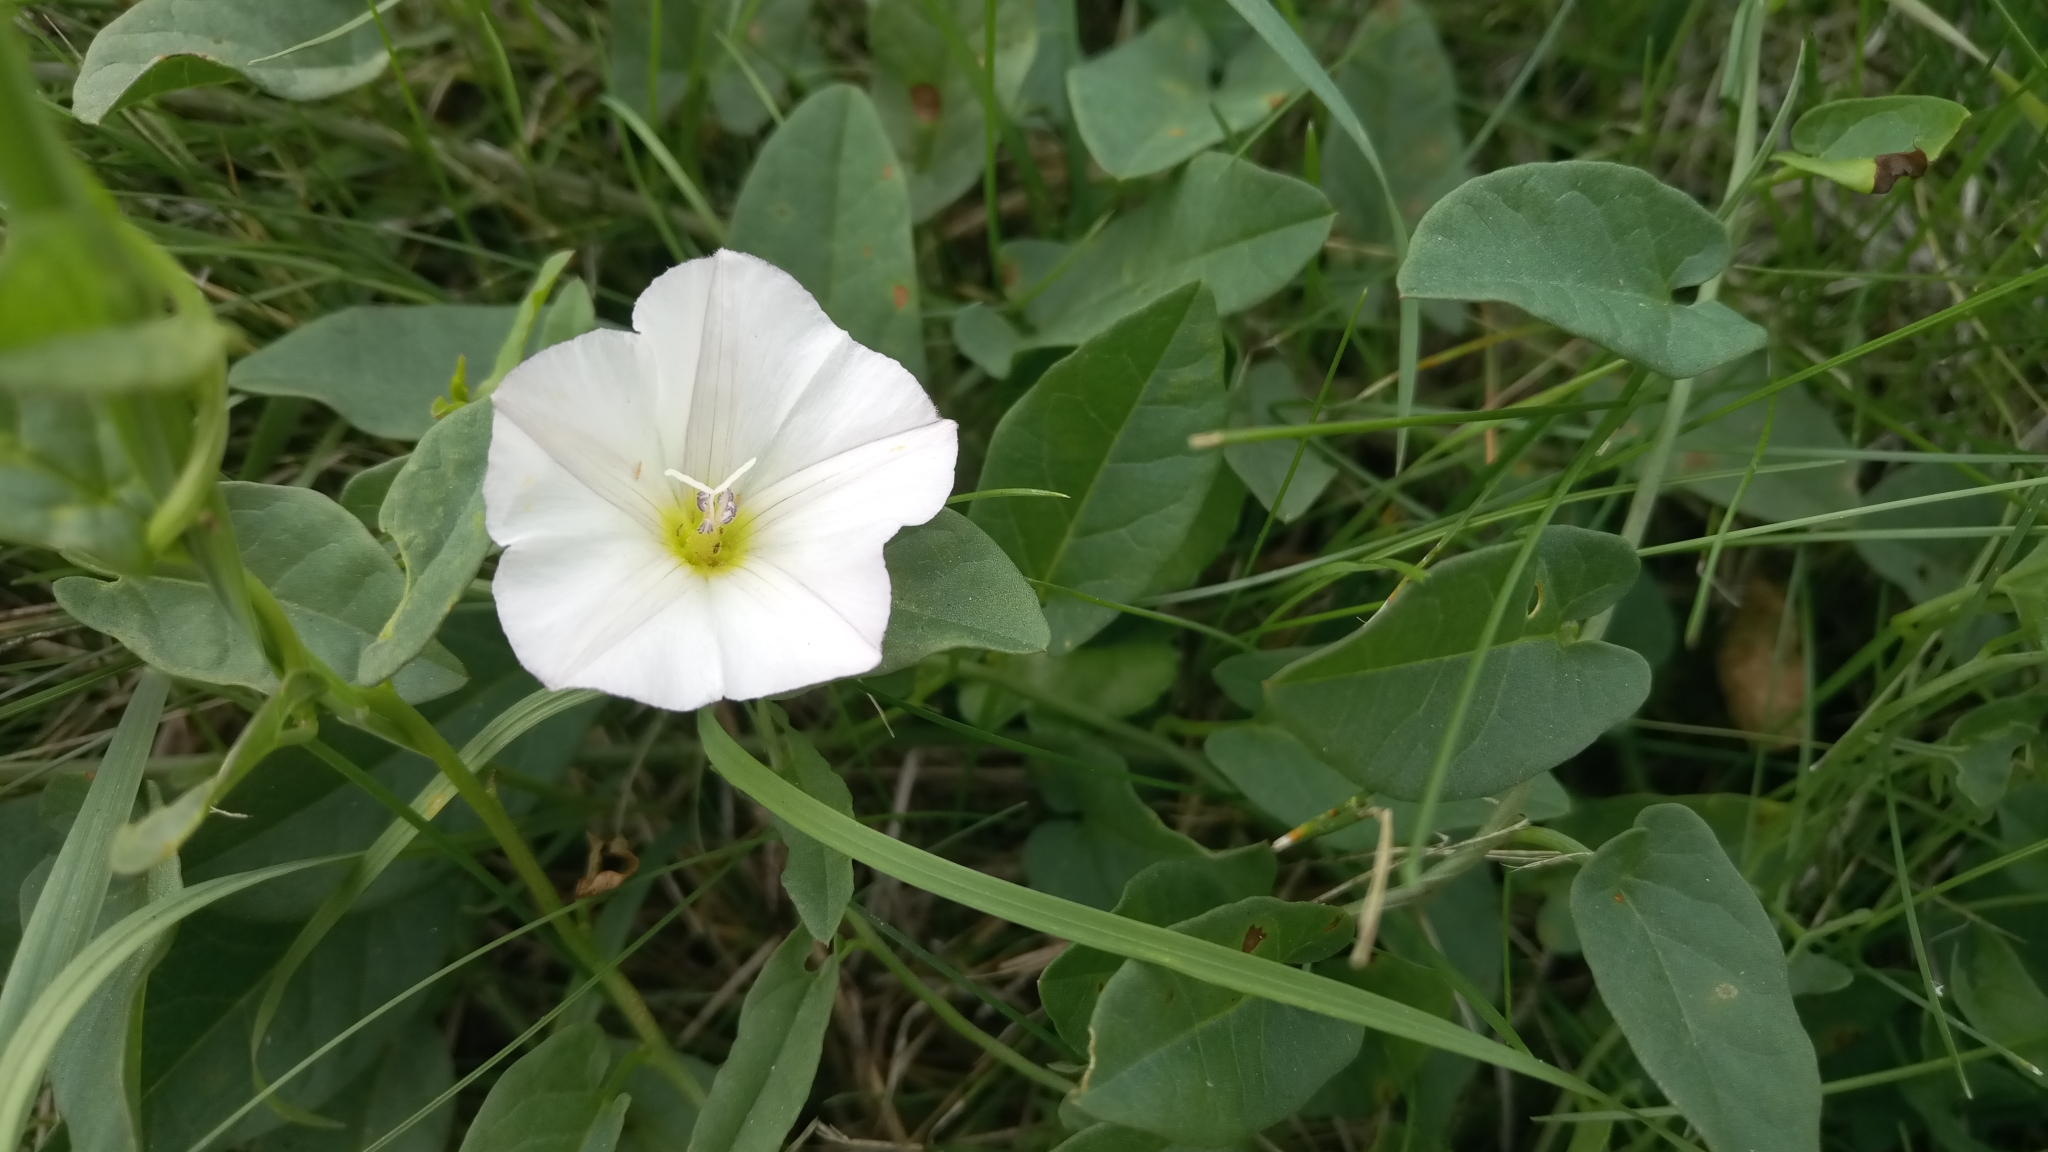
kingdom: Plantae
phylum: Tracheophyta
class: Magnoliopsida
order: Solanales
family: Convolvulaceae
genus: Convolvulus
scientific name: Convolvulus arvensis
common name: Field bindweed
